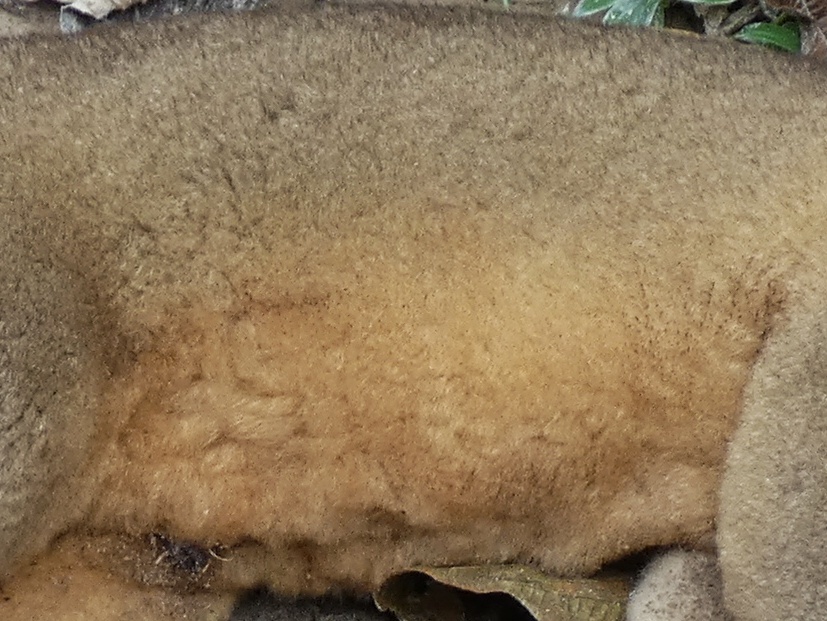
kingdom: Animalia
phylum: Chordata
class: Mammalia
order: Carnivora
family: Procyonidae
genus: Potos
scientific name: Potos flavus
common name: Kinkajou
